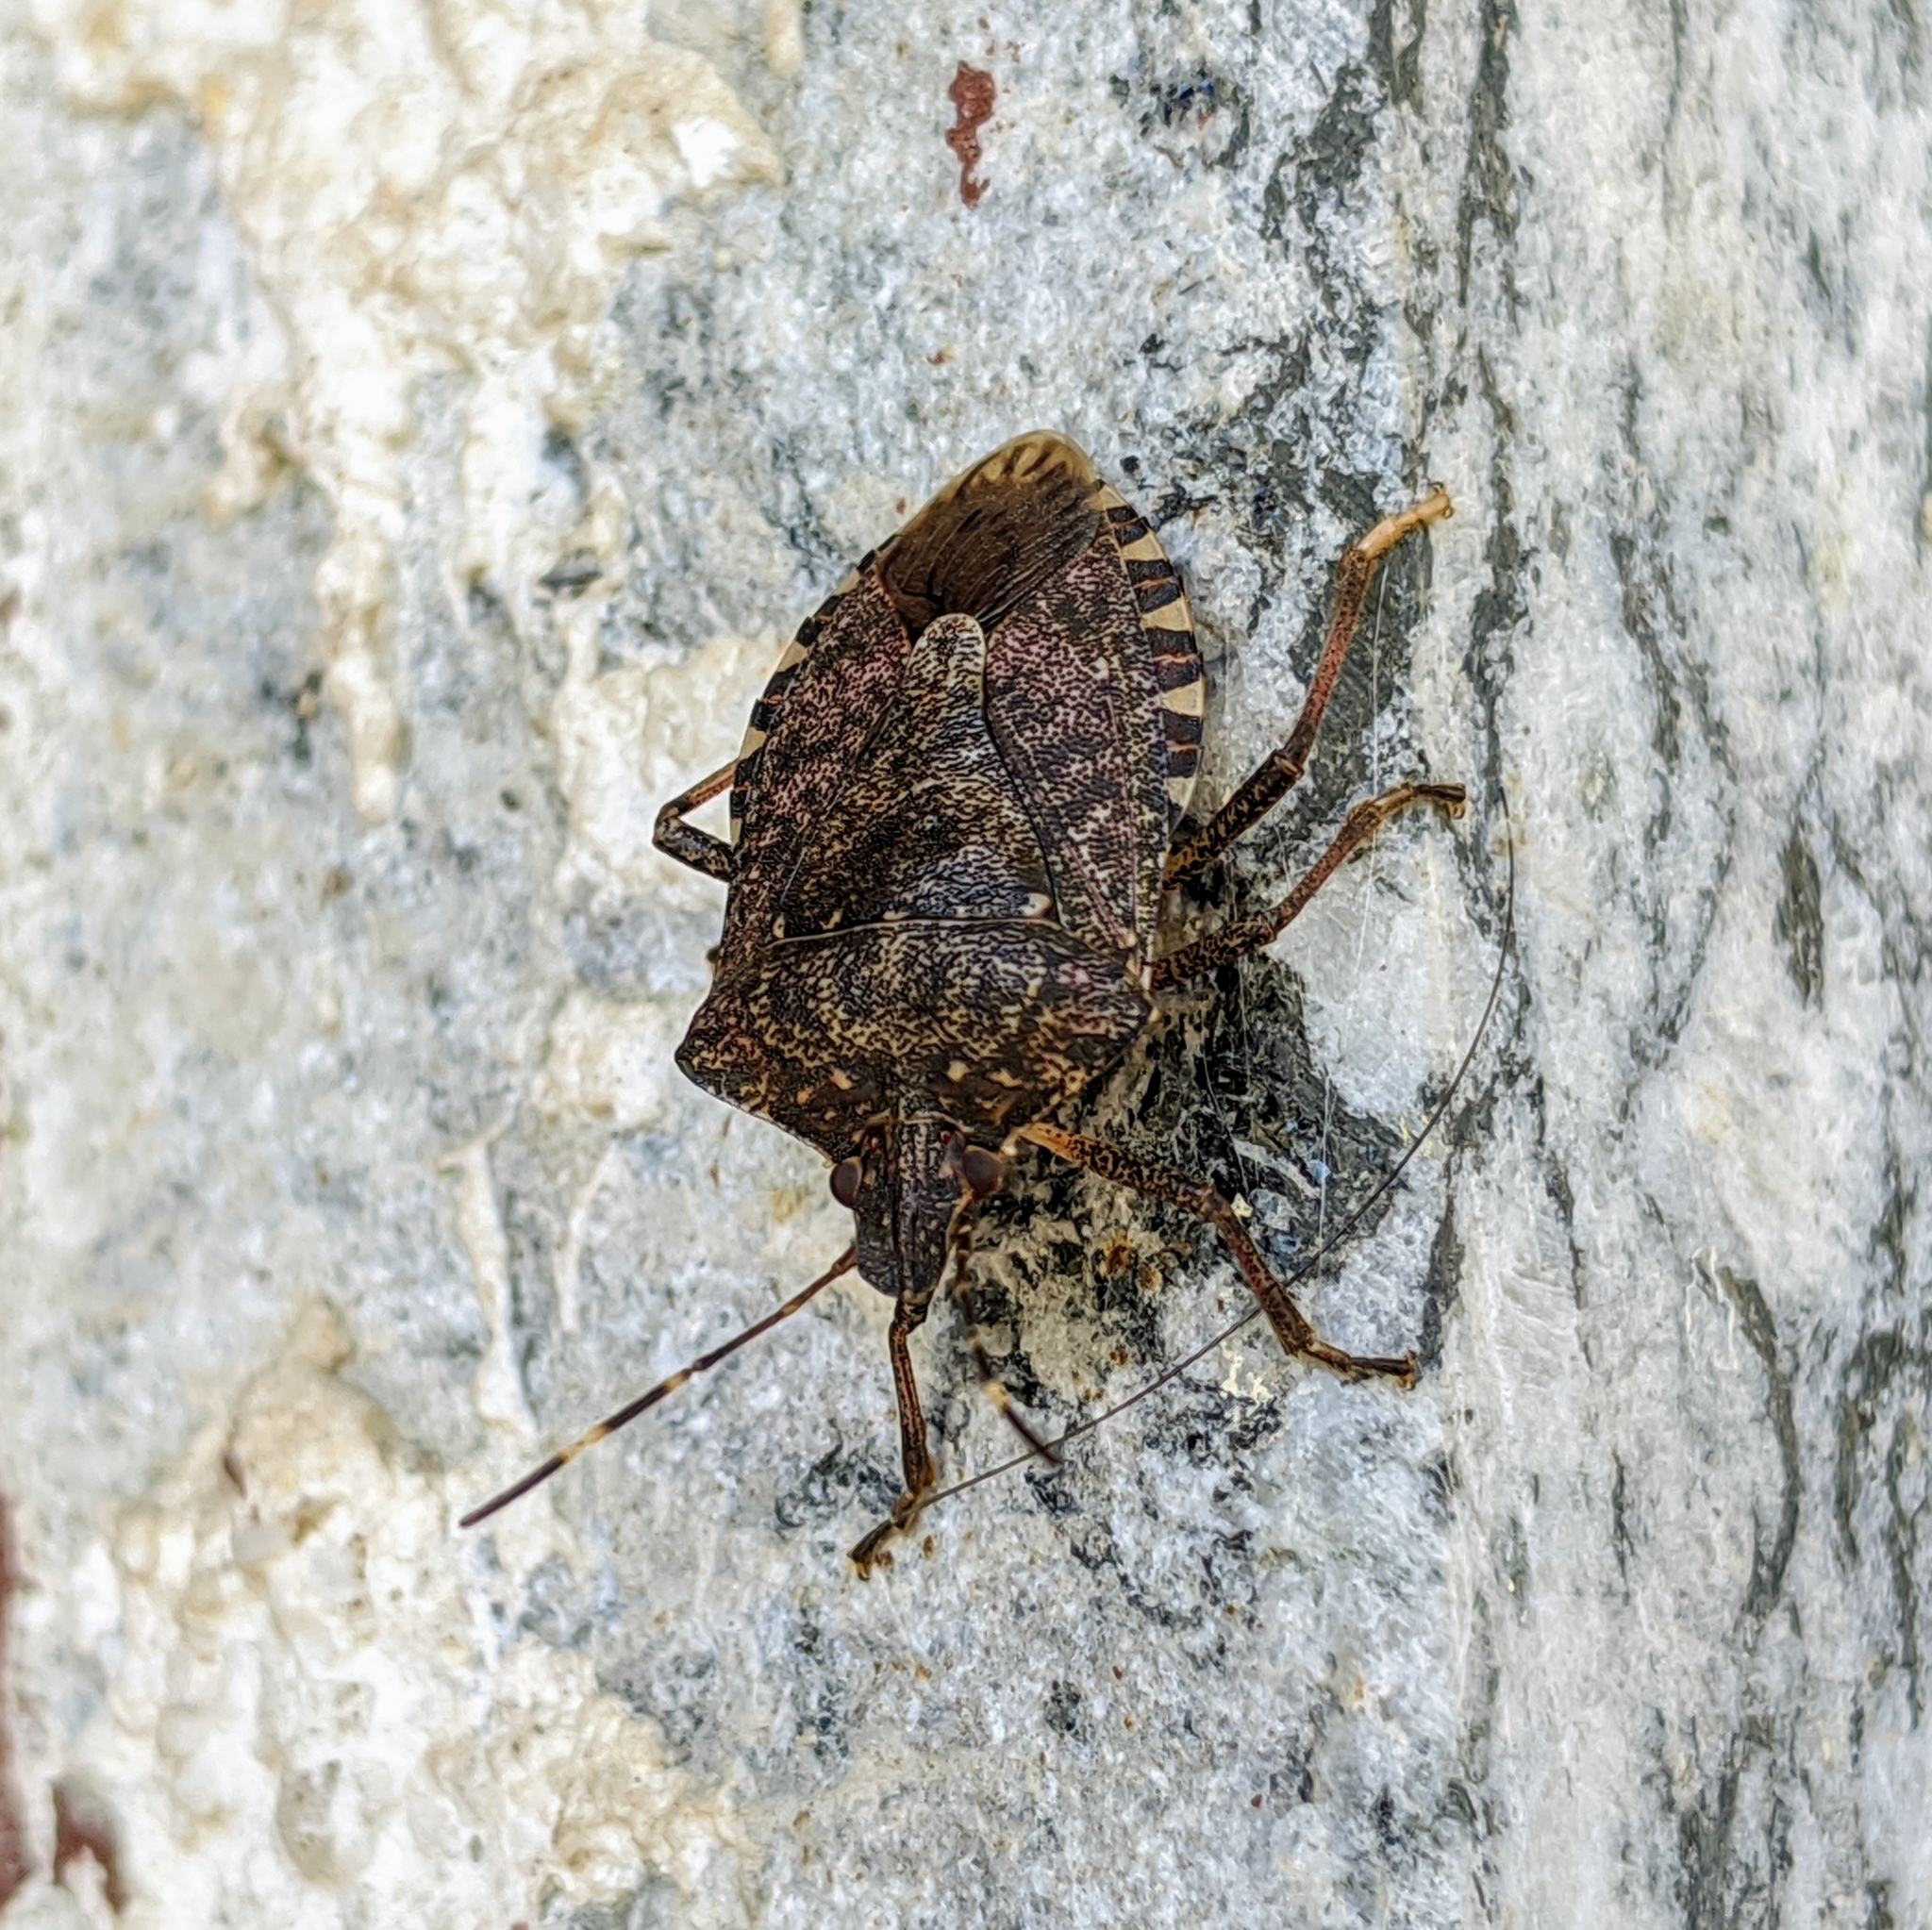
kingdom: Animalia
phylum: Arthropoda
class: Insecta
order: Hemiptera
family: Pentatomidae
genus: Halyomorpha
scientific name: Halyomorpha halys
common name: Brown marmorated stink bug
